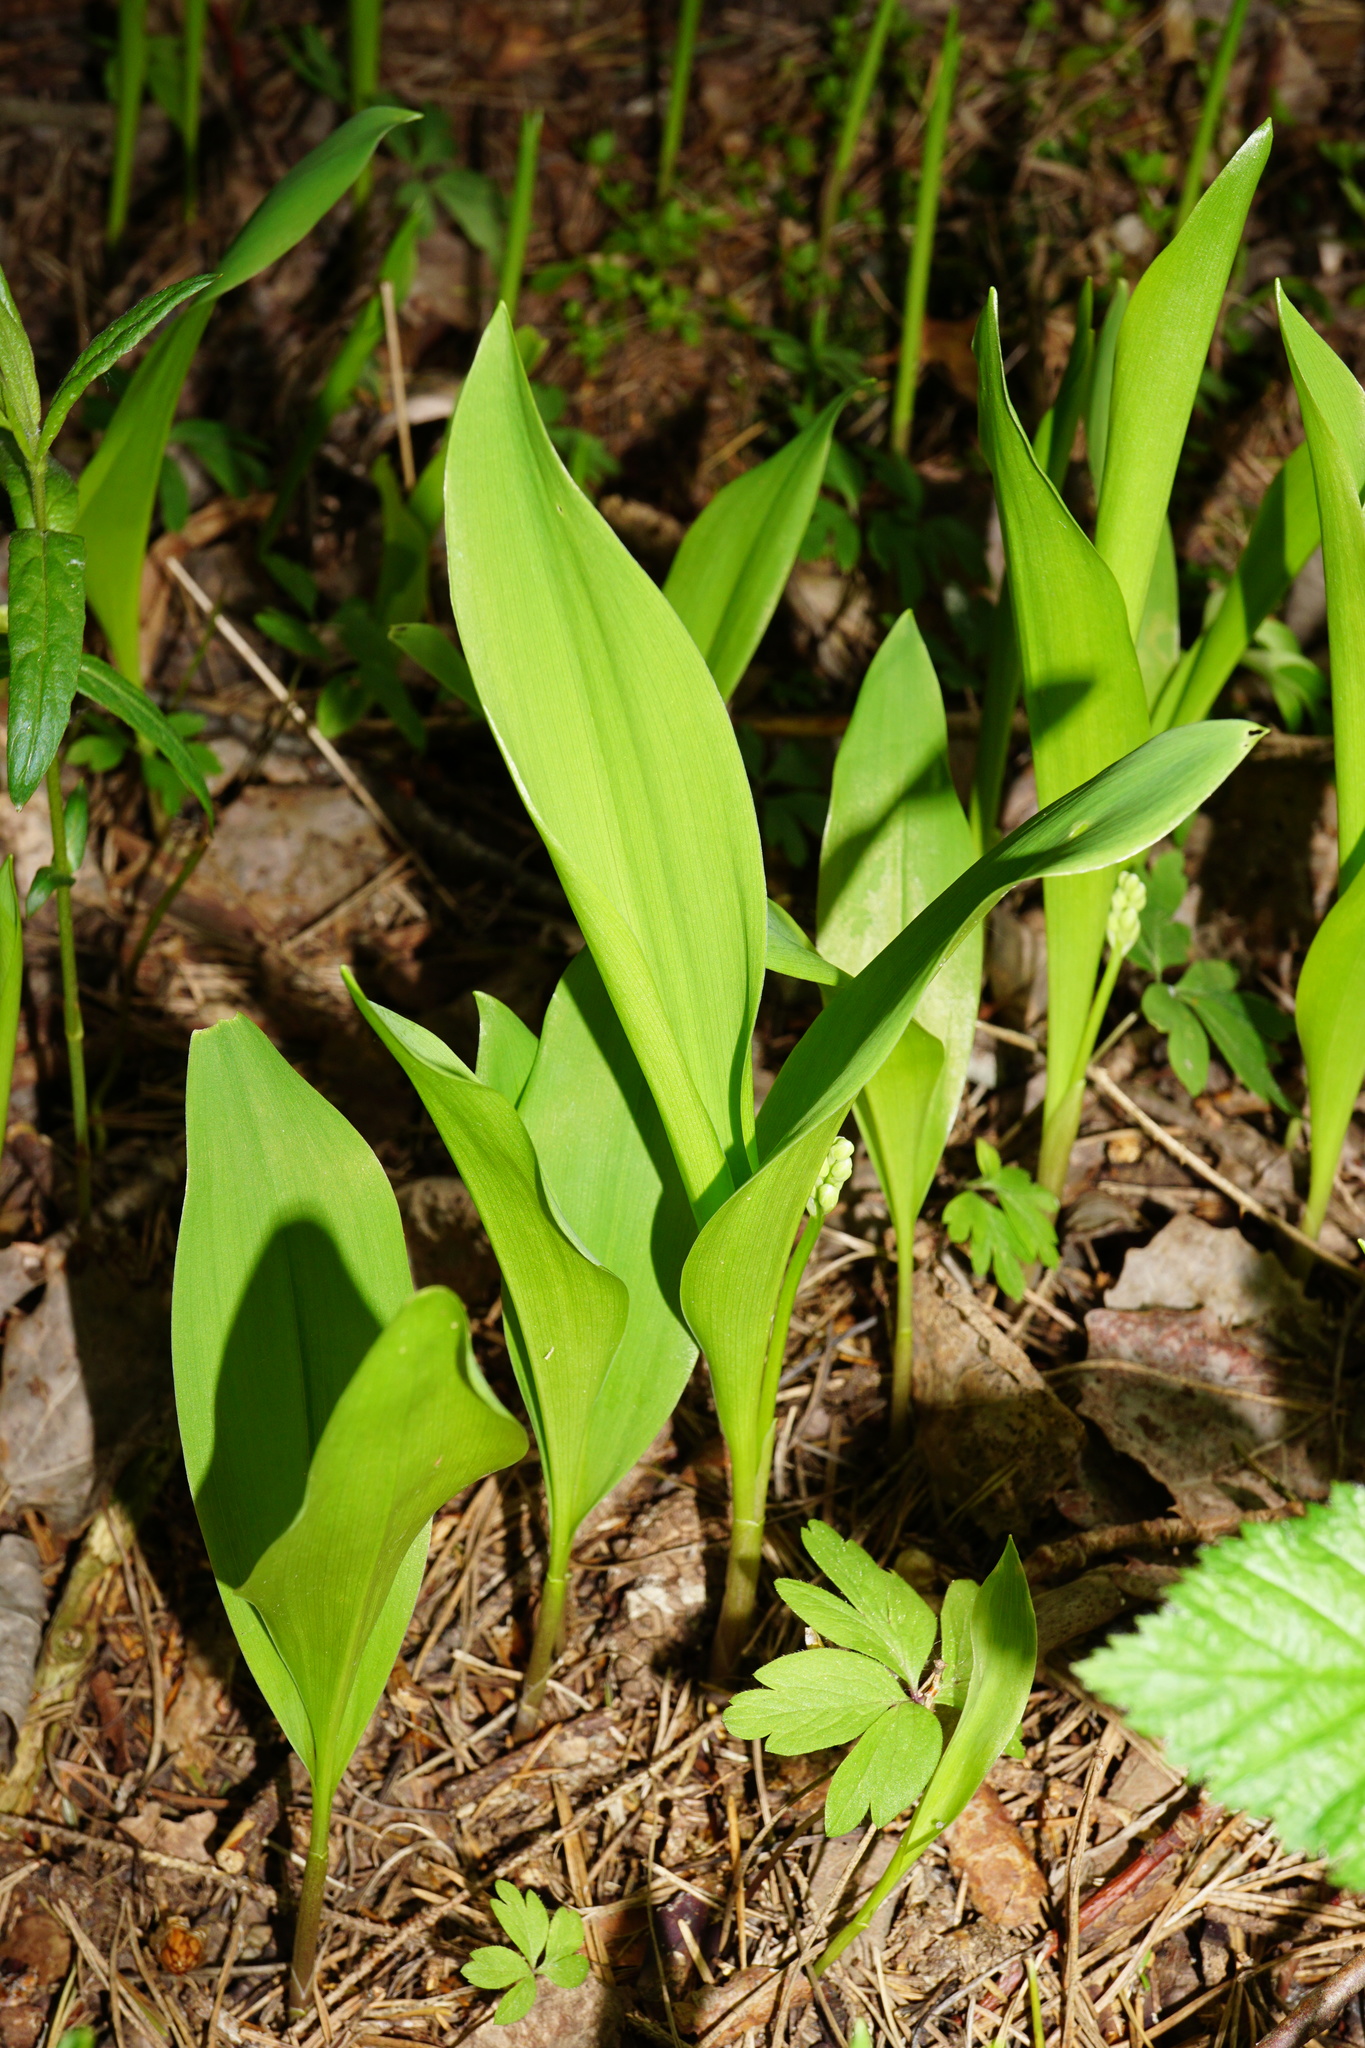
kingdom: Plantae
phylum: Tracheophyta
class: Liliopsida
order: Asparagales
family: Asparagaceae
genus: Convallaria
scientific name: Convallaria majalis
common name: Lily-of-the-valley
